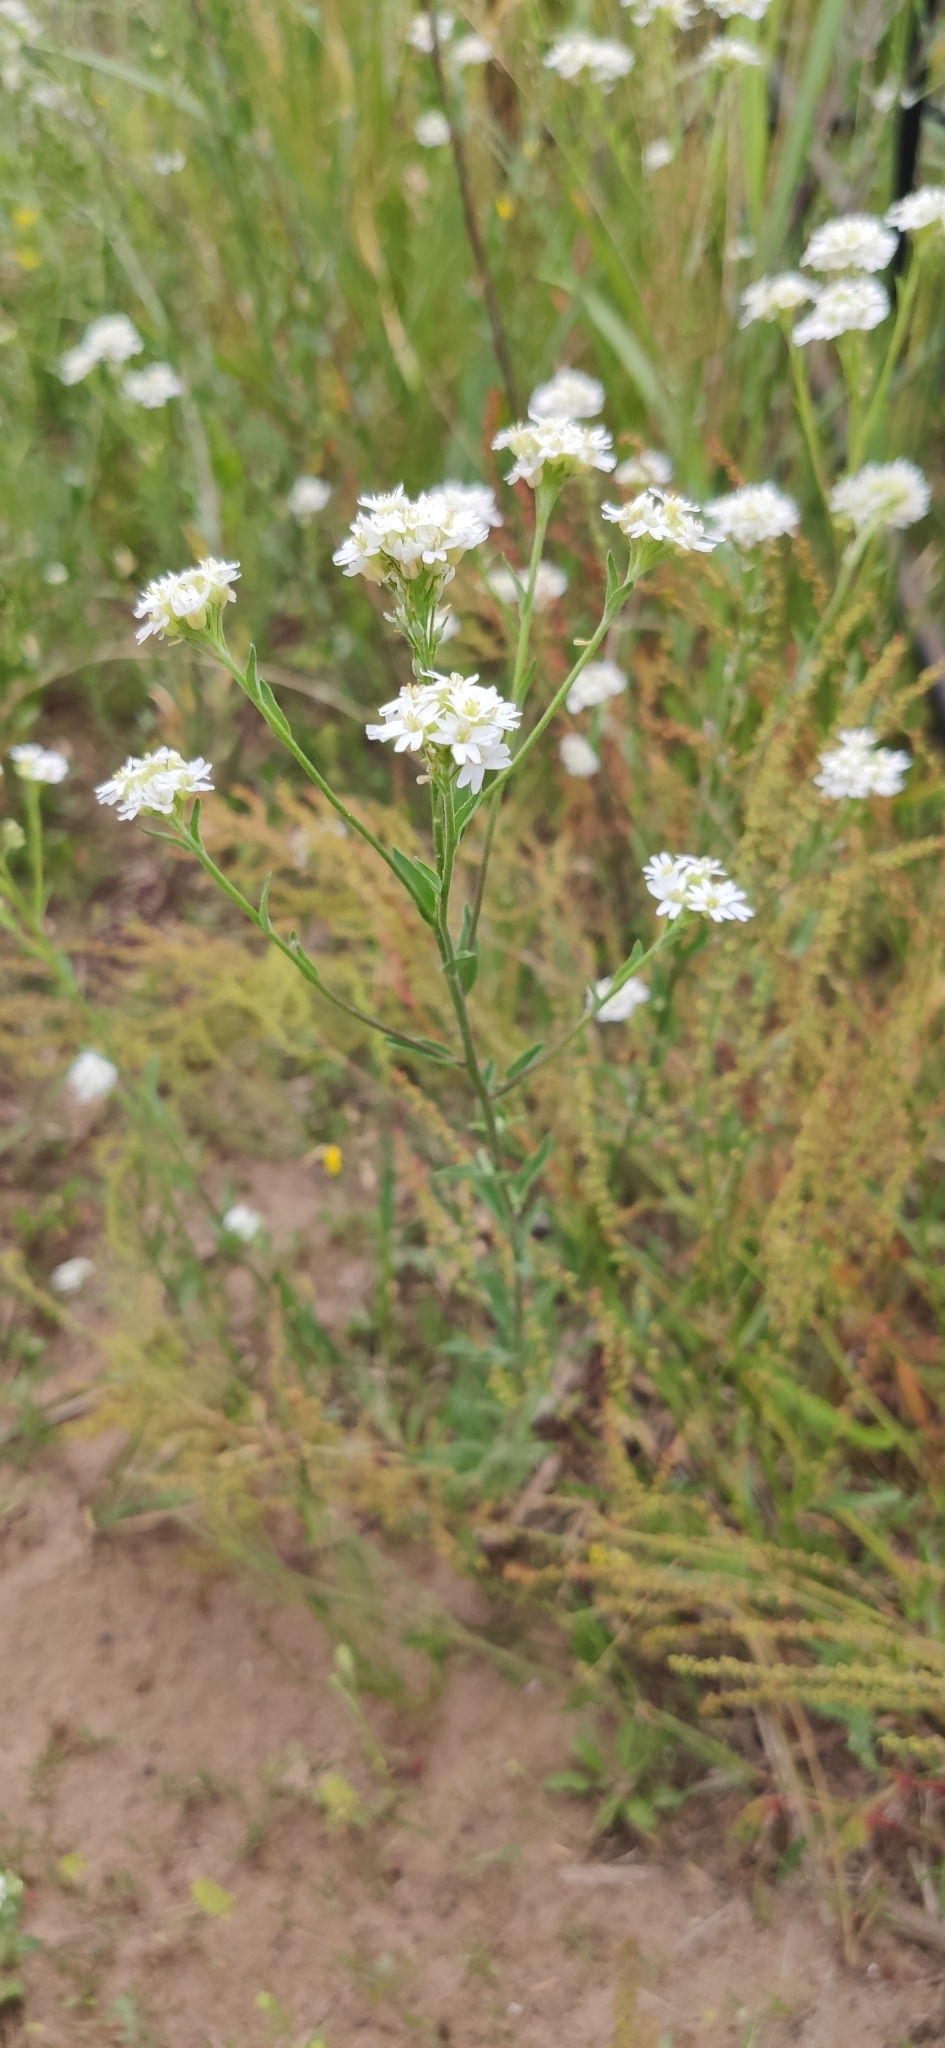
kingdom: Plantae
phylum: Tracheophyta
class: Magnoliopsida
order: Brassicales
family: Brassicaceae
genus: Berteroa
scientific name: Berteroa incana
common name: Hoary alison
